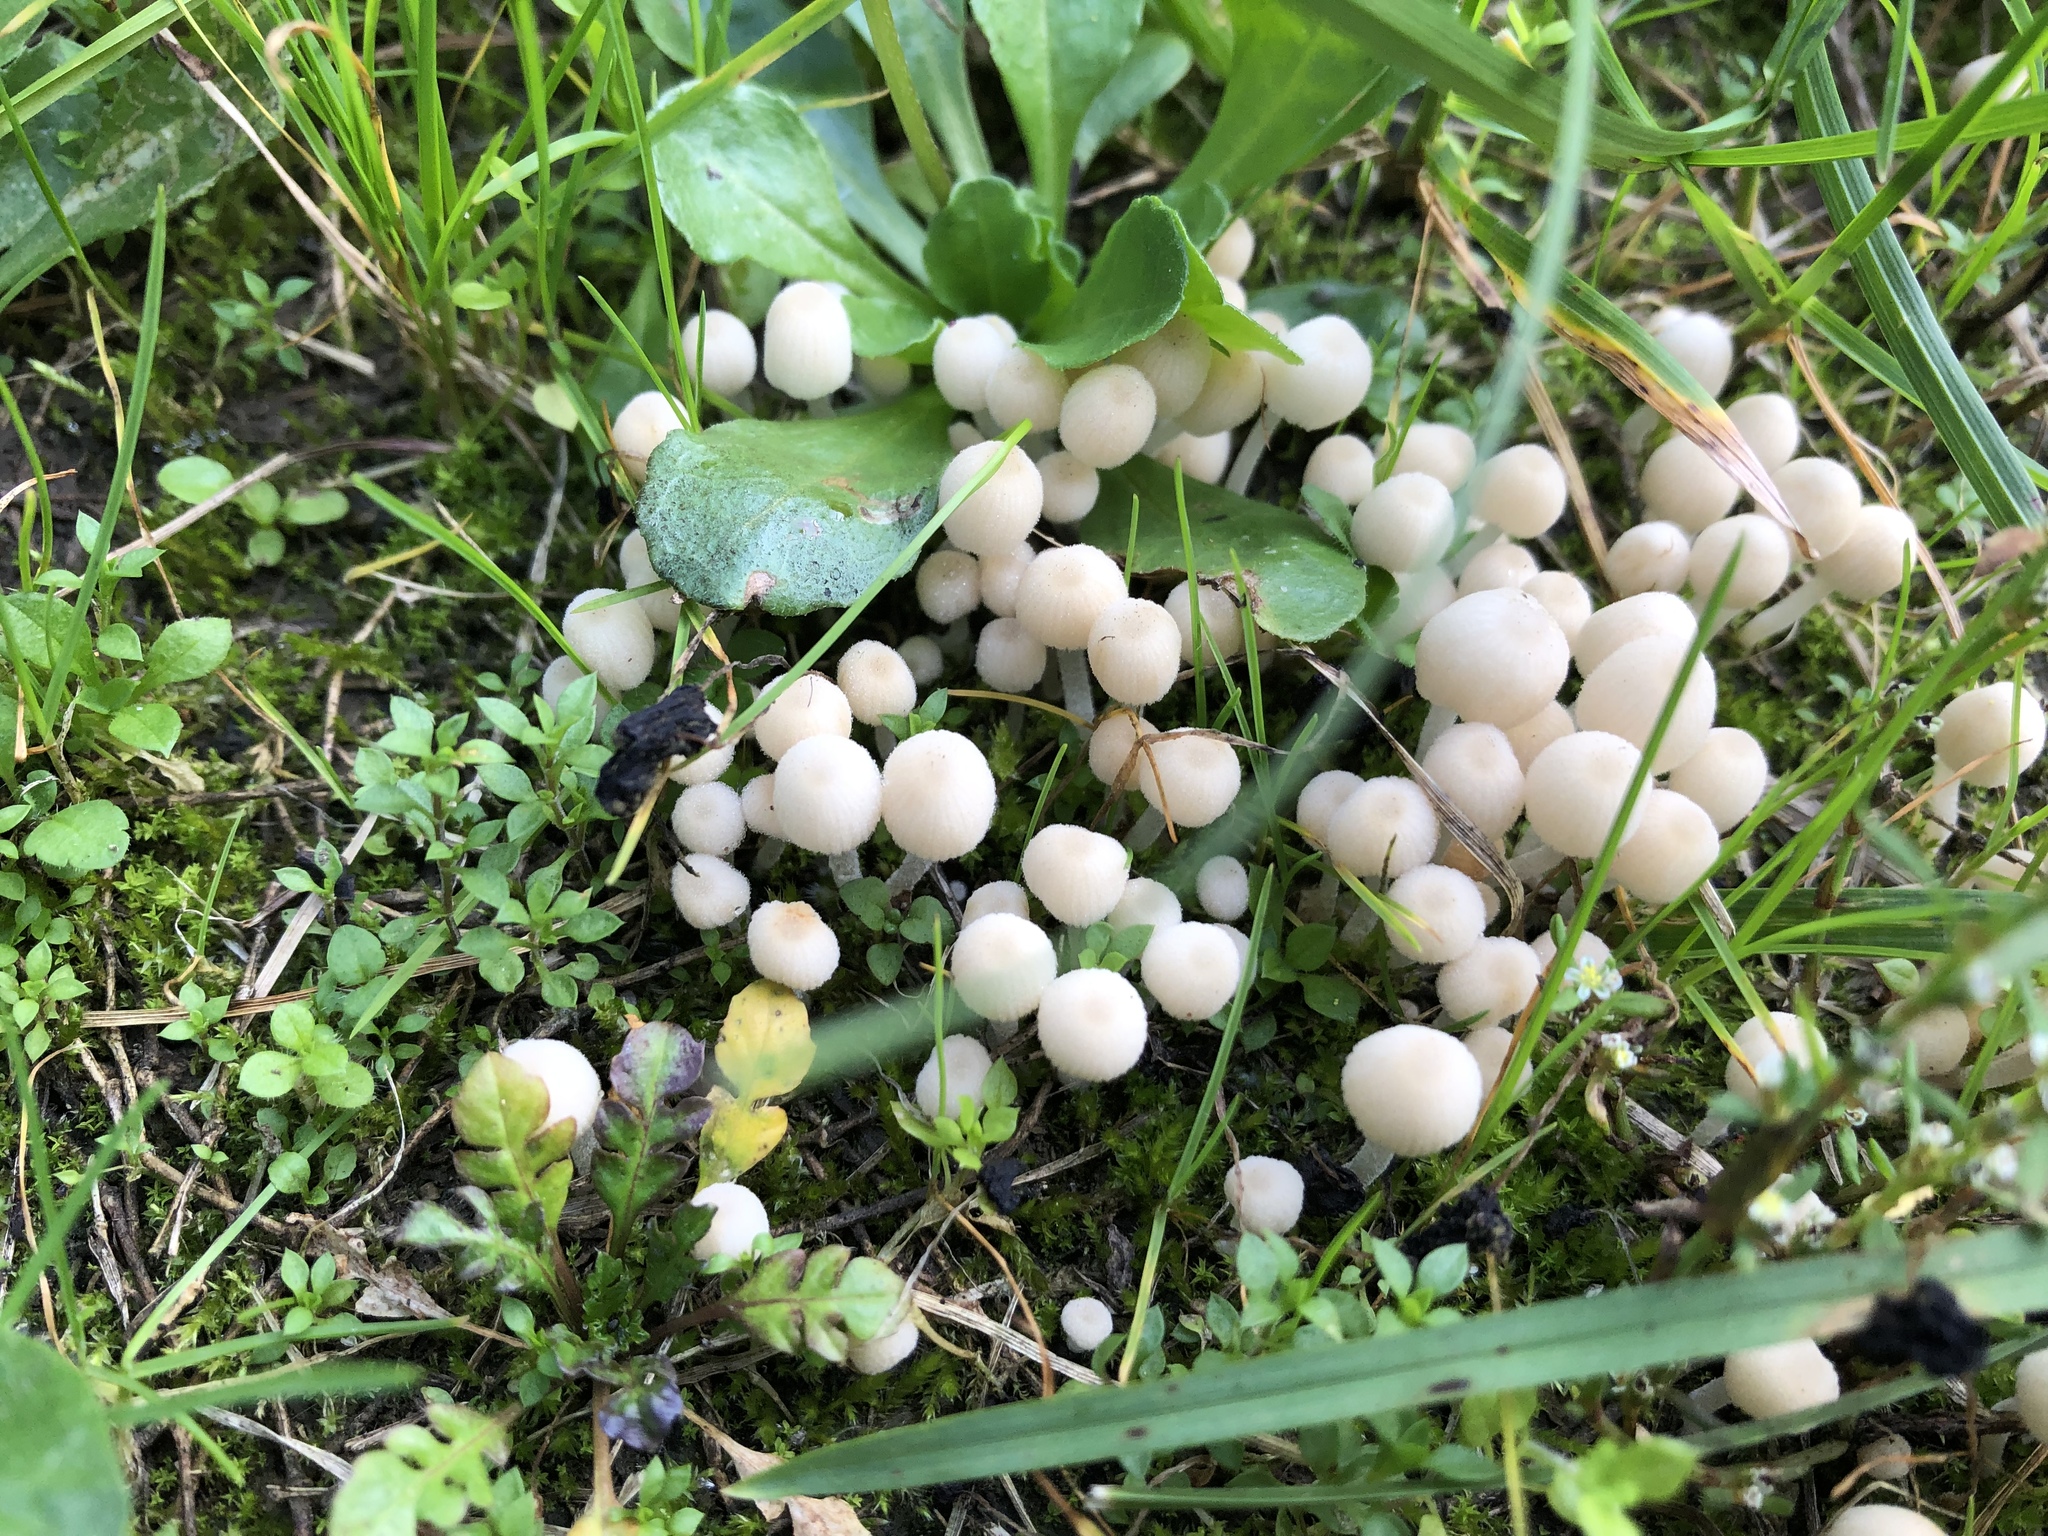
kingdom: Fungi
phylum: Basidiomycota
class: Agaricomycetes
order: Agaricales
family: Psathyrellaceae
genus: Coprinellus
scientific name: Coprinellus disseminatus
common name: Fairies' bonnets
